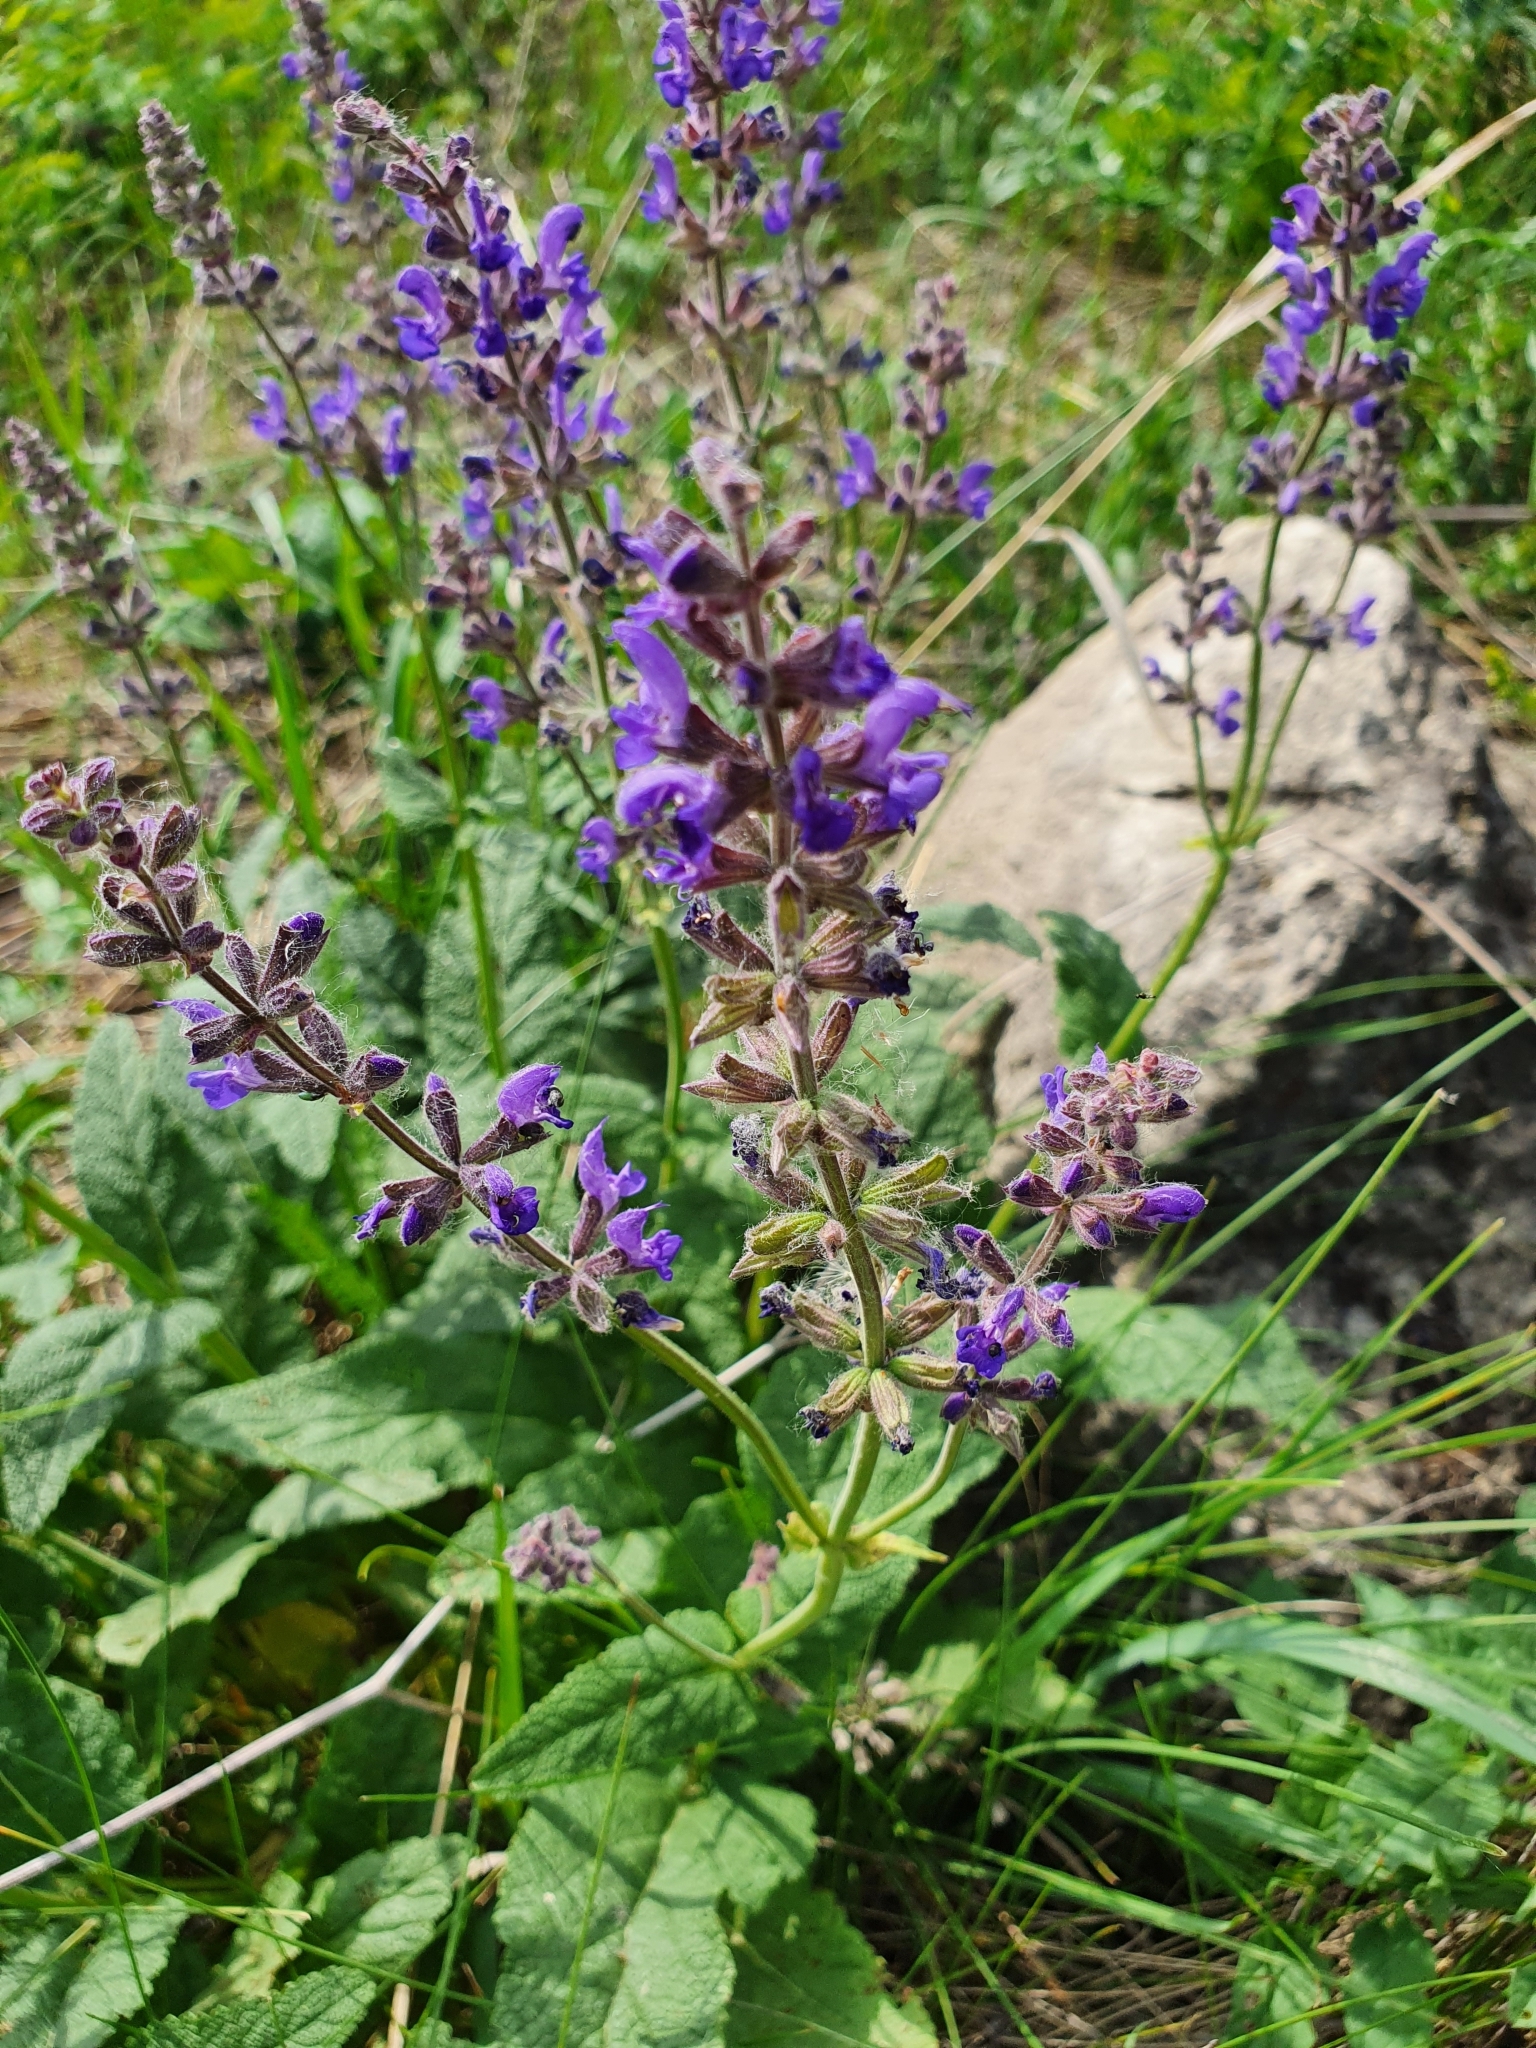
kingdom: Plantae
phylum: Tracheophyta
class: Magnoliopsida
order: Lamiales
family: Lamiaceae
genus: Salvia
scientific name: Salvia dumetorum
